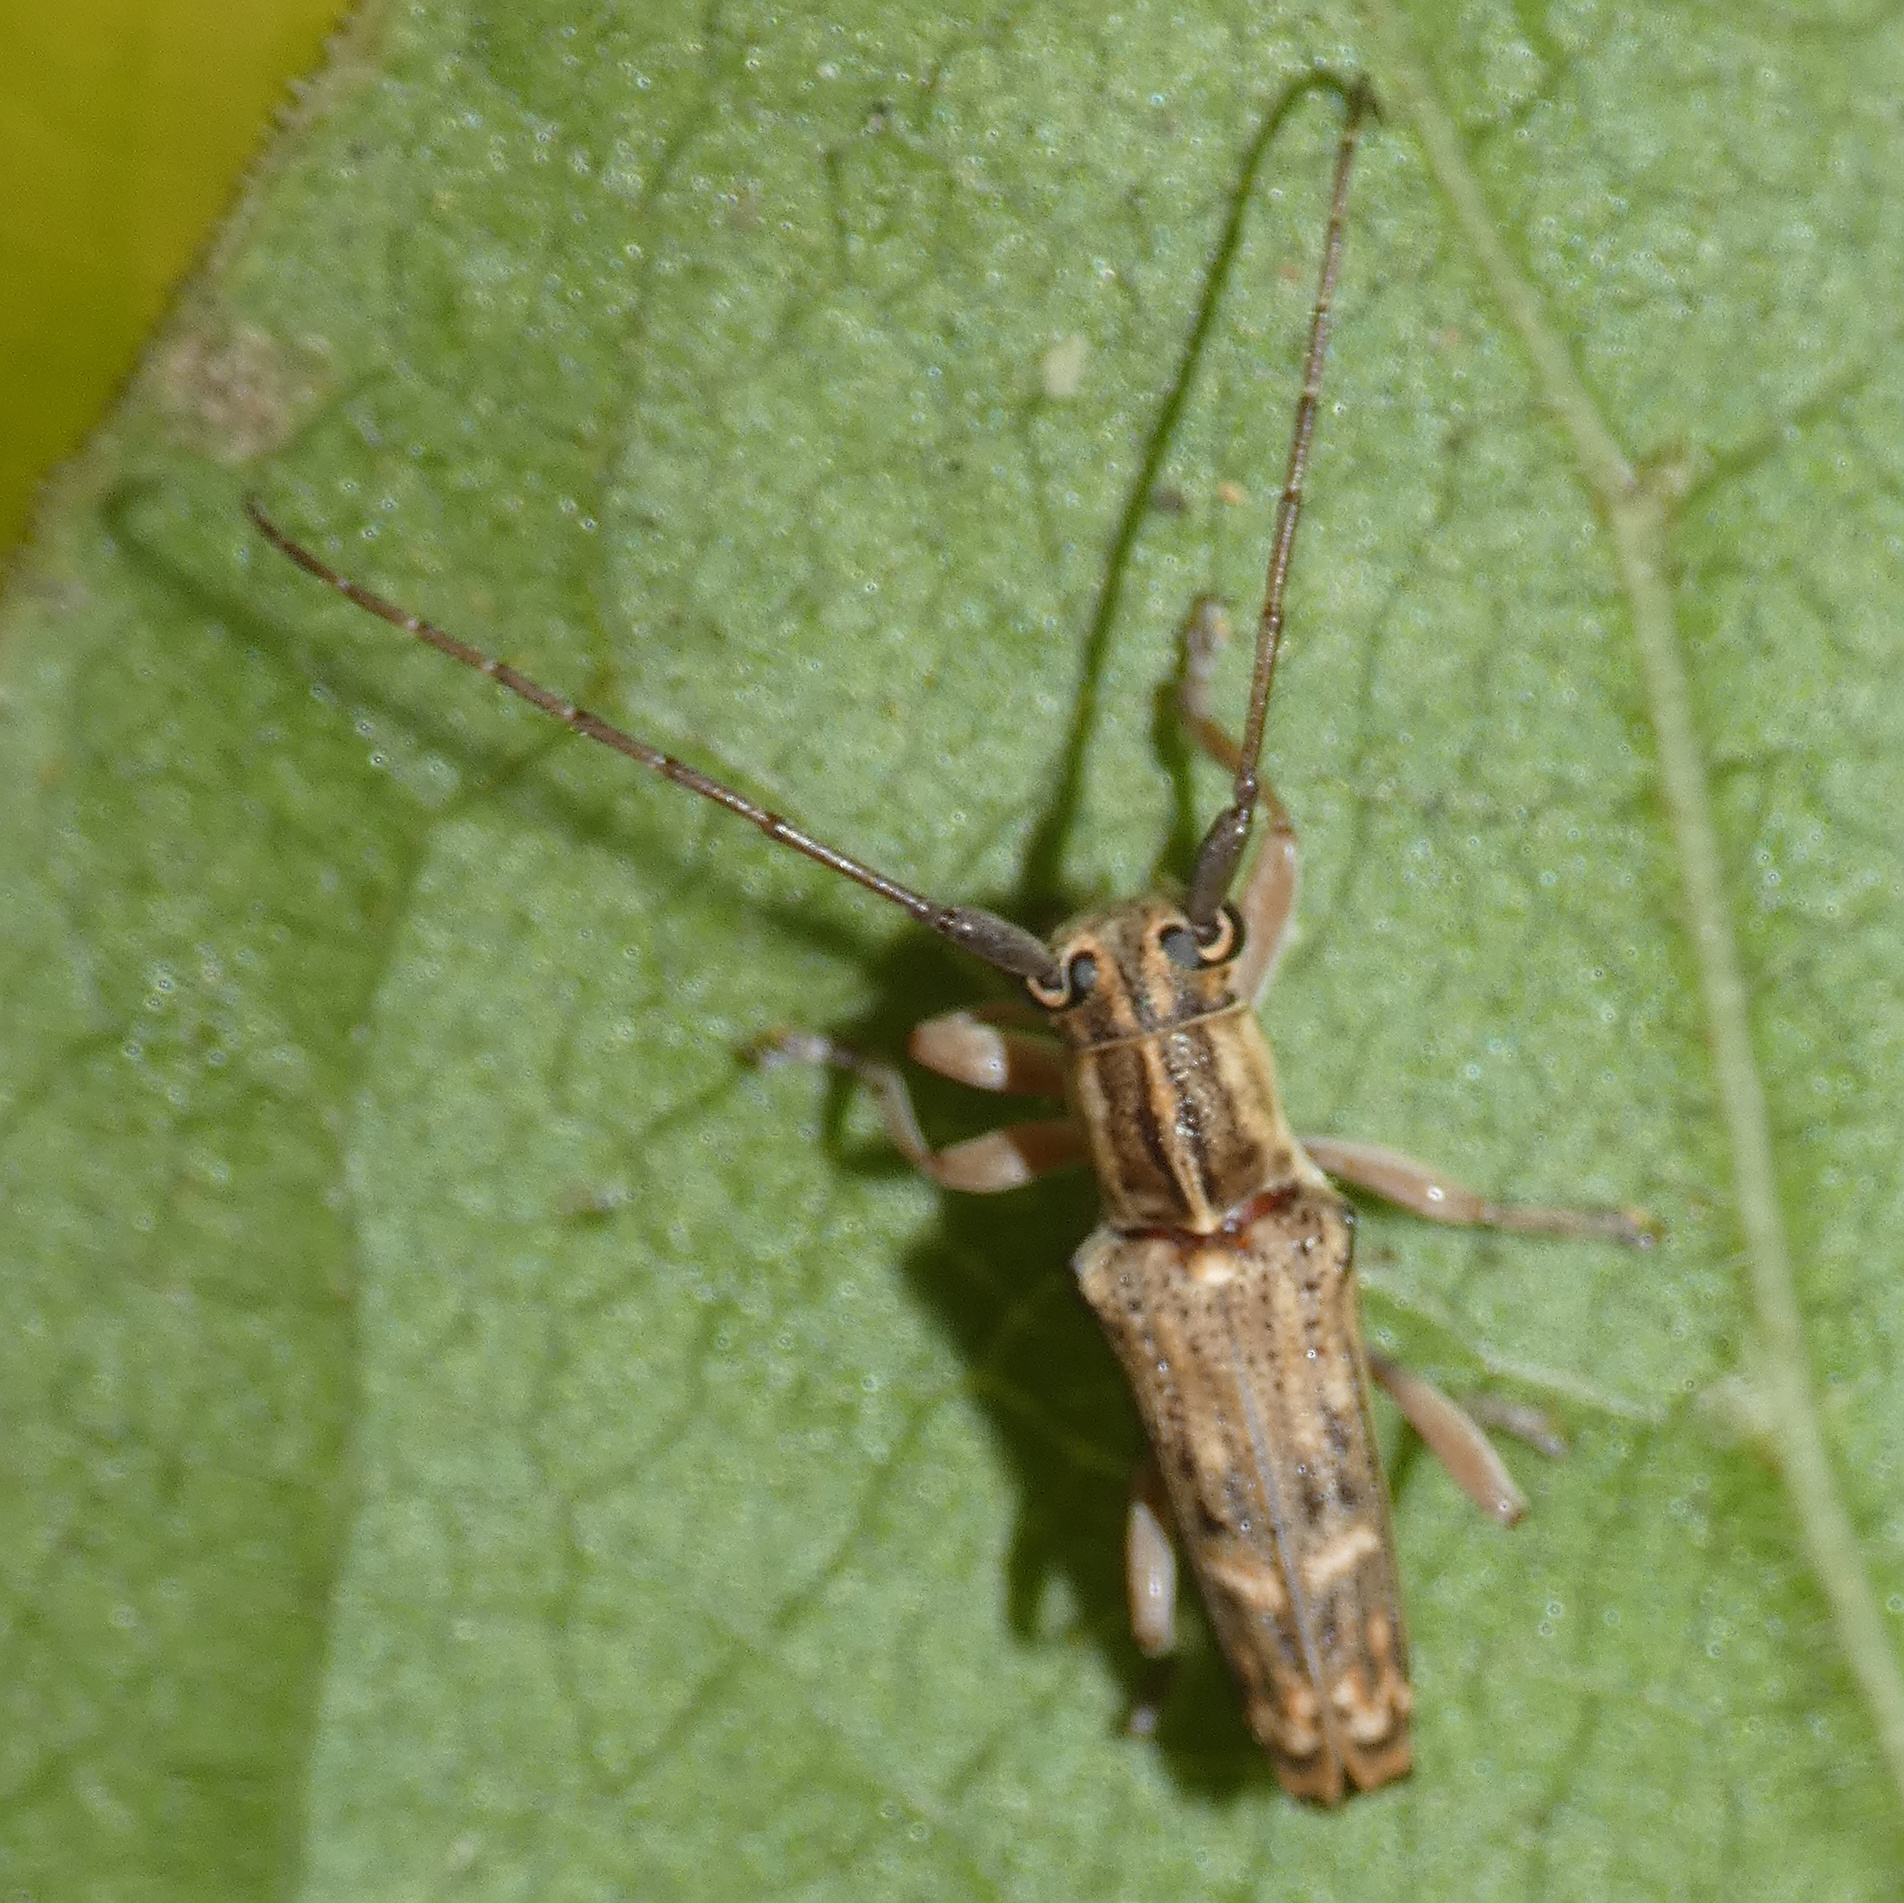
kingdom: Animalia
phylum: Arthropoda
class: Insecta
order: Coleoptera
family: Cerambycidae
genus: Glenea
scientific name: Glenea arida
